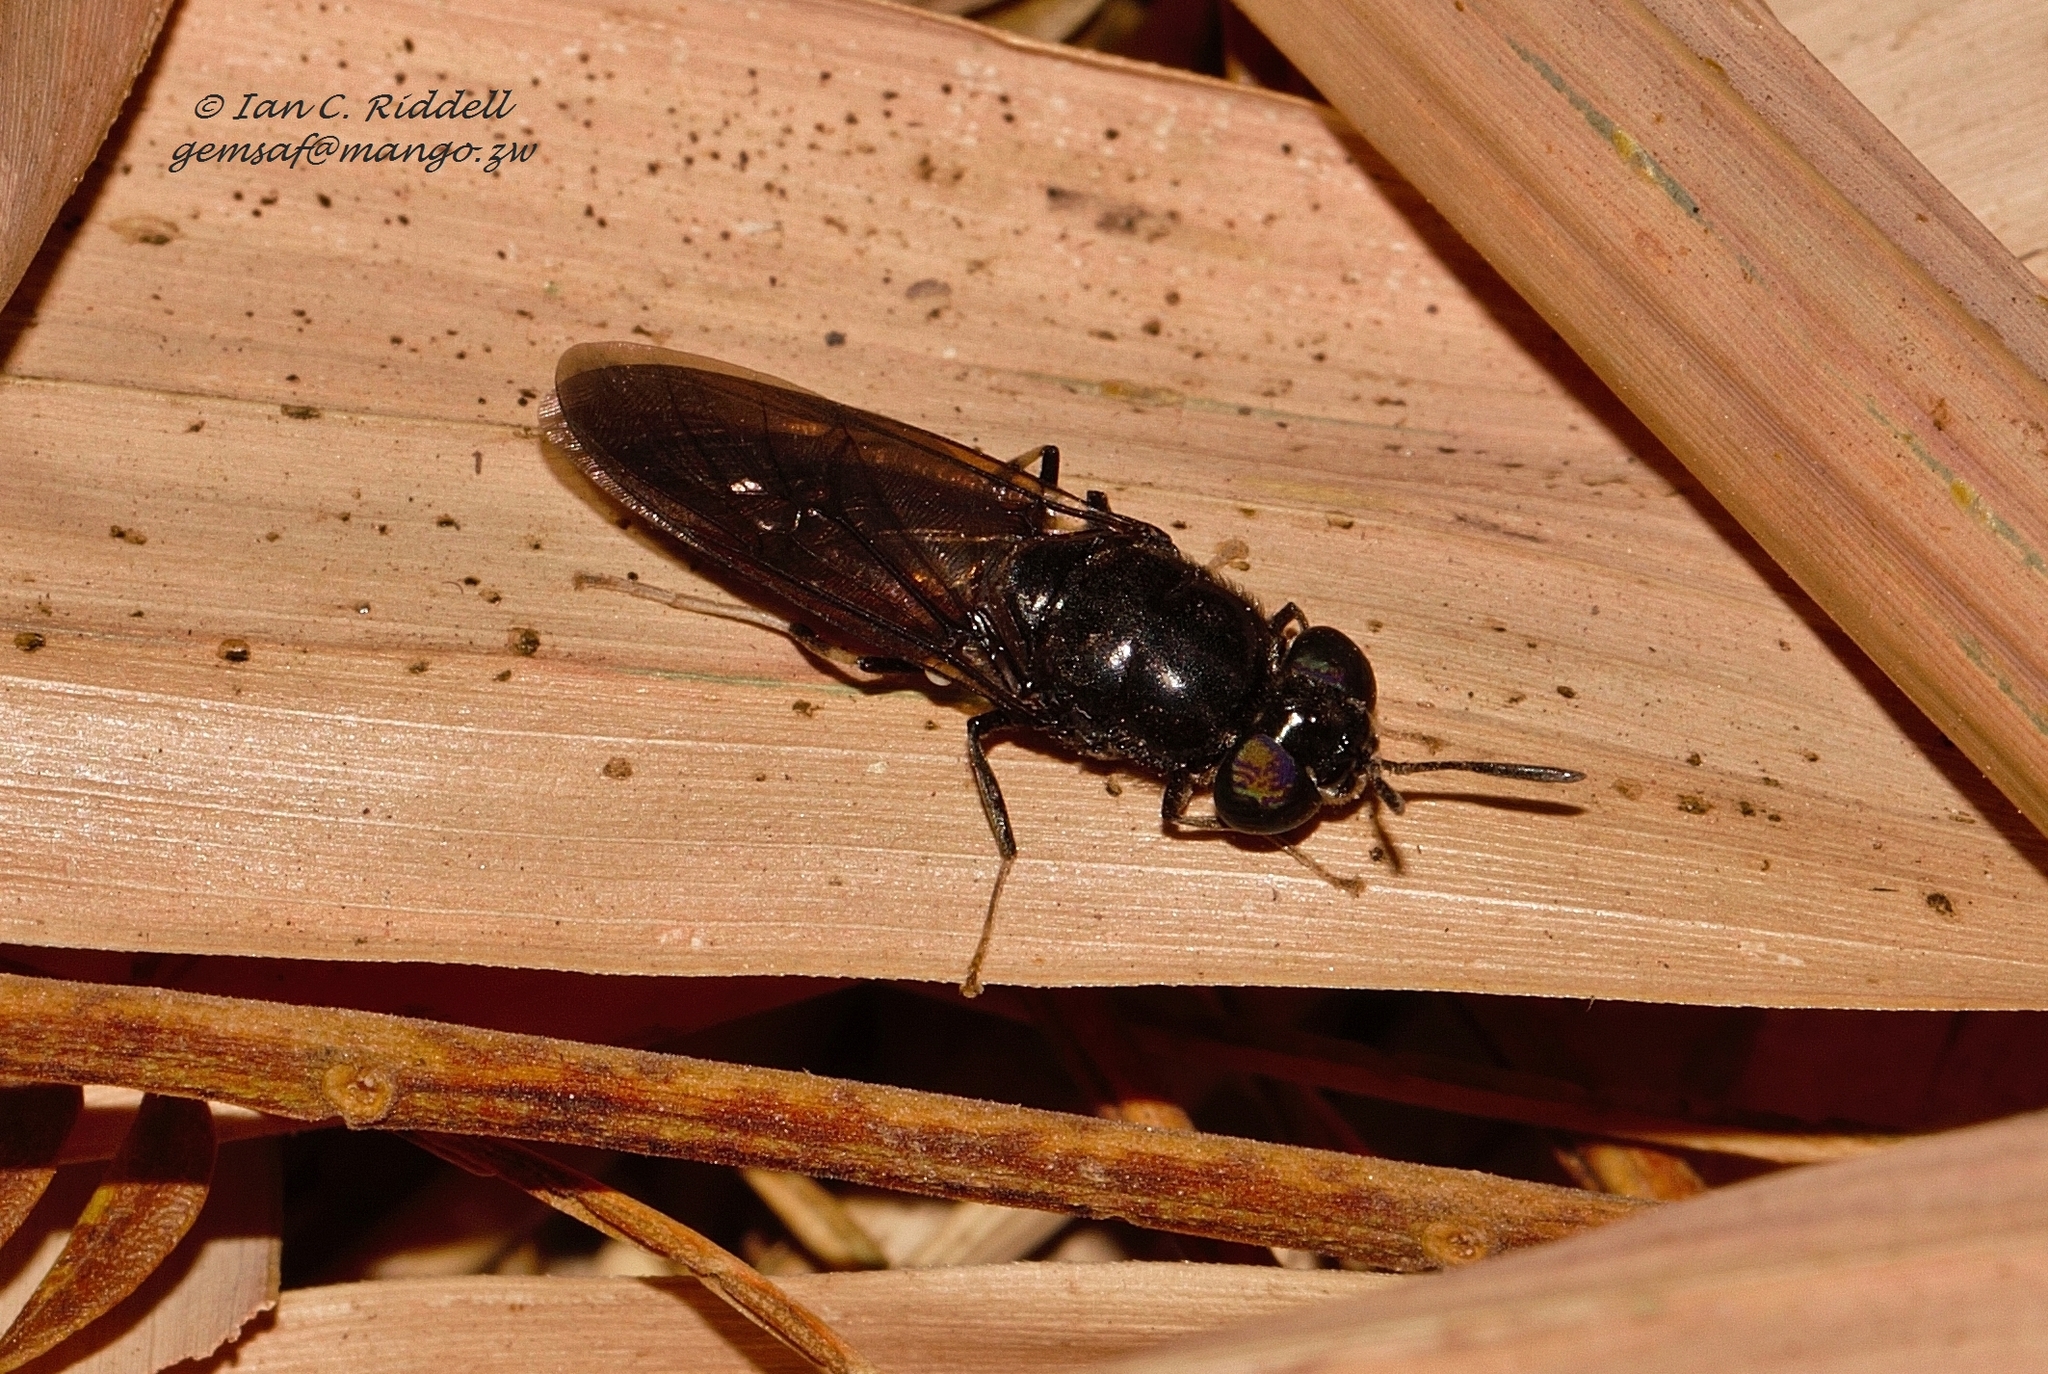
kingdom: Animalia
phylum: Arthropoda
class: Insecta
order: Diptera
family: Stratiomyidae
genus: Hermetia
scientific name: Hermetia illucens
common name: Black soldier fly
